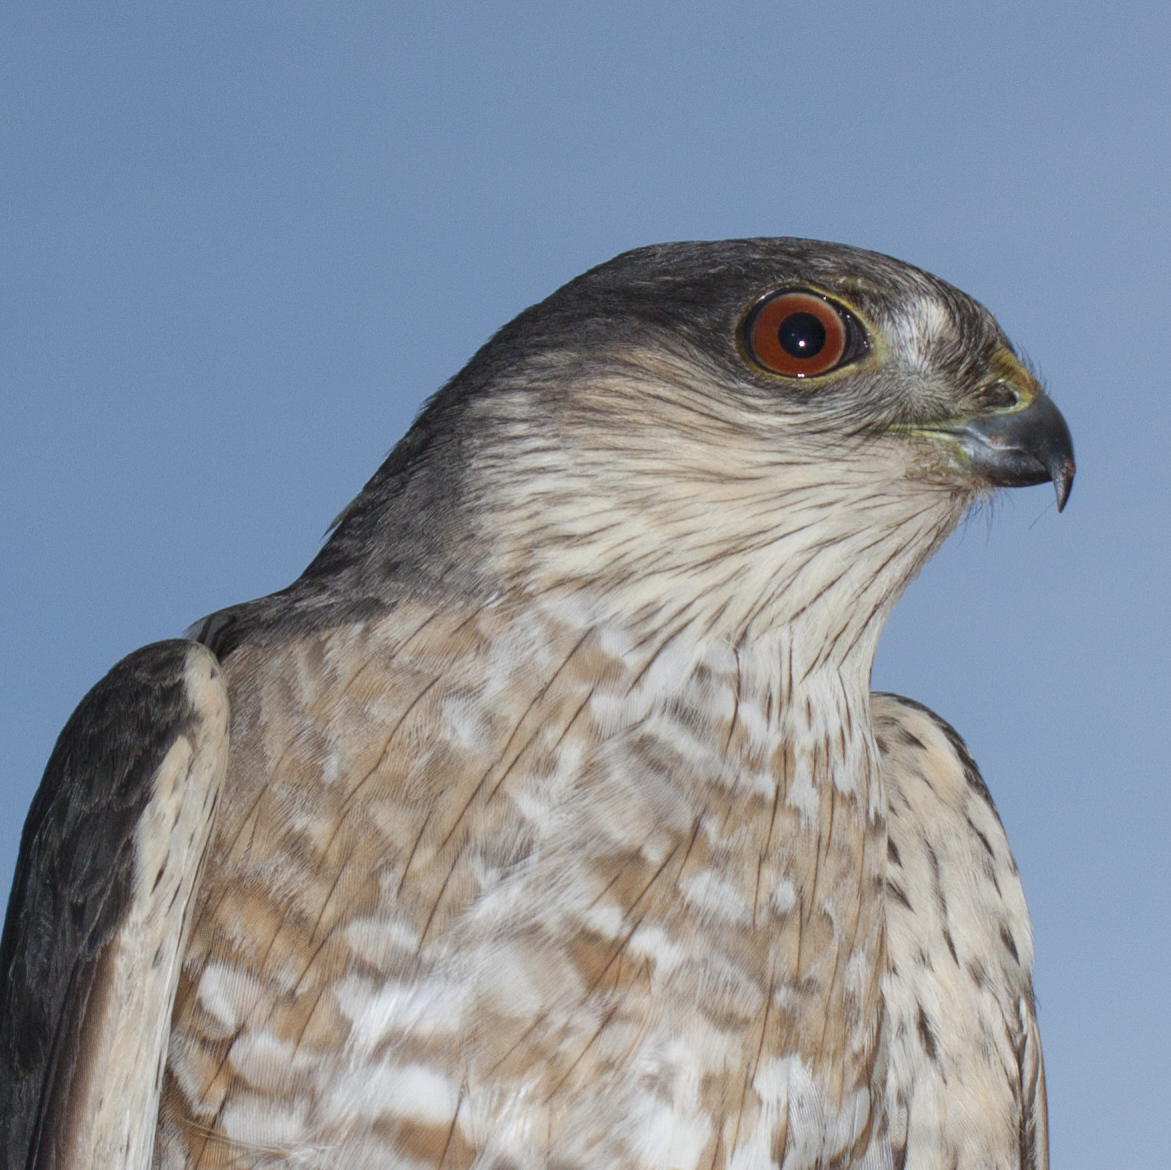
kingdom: Animalia
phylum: Chordata
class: Aves
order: Accipitriformes
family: Accipitridae
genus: Accipiter
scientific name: Accipiter striatus
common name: Sharp-shinned hawk
